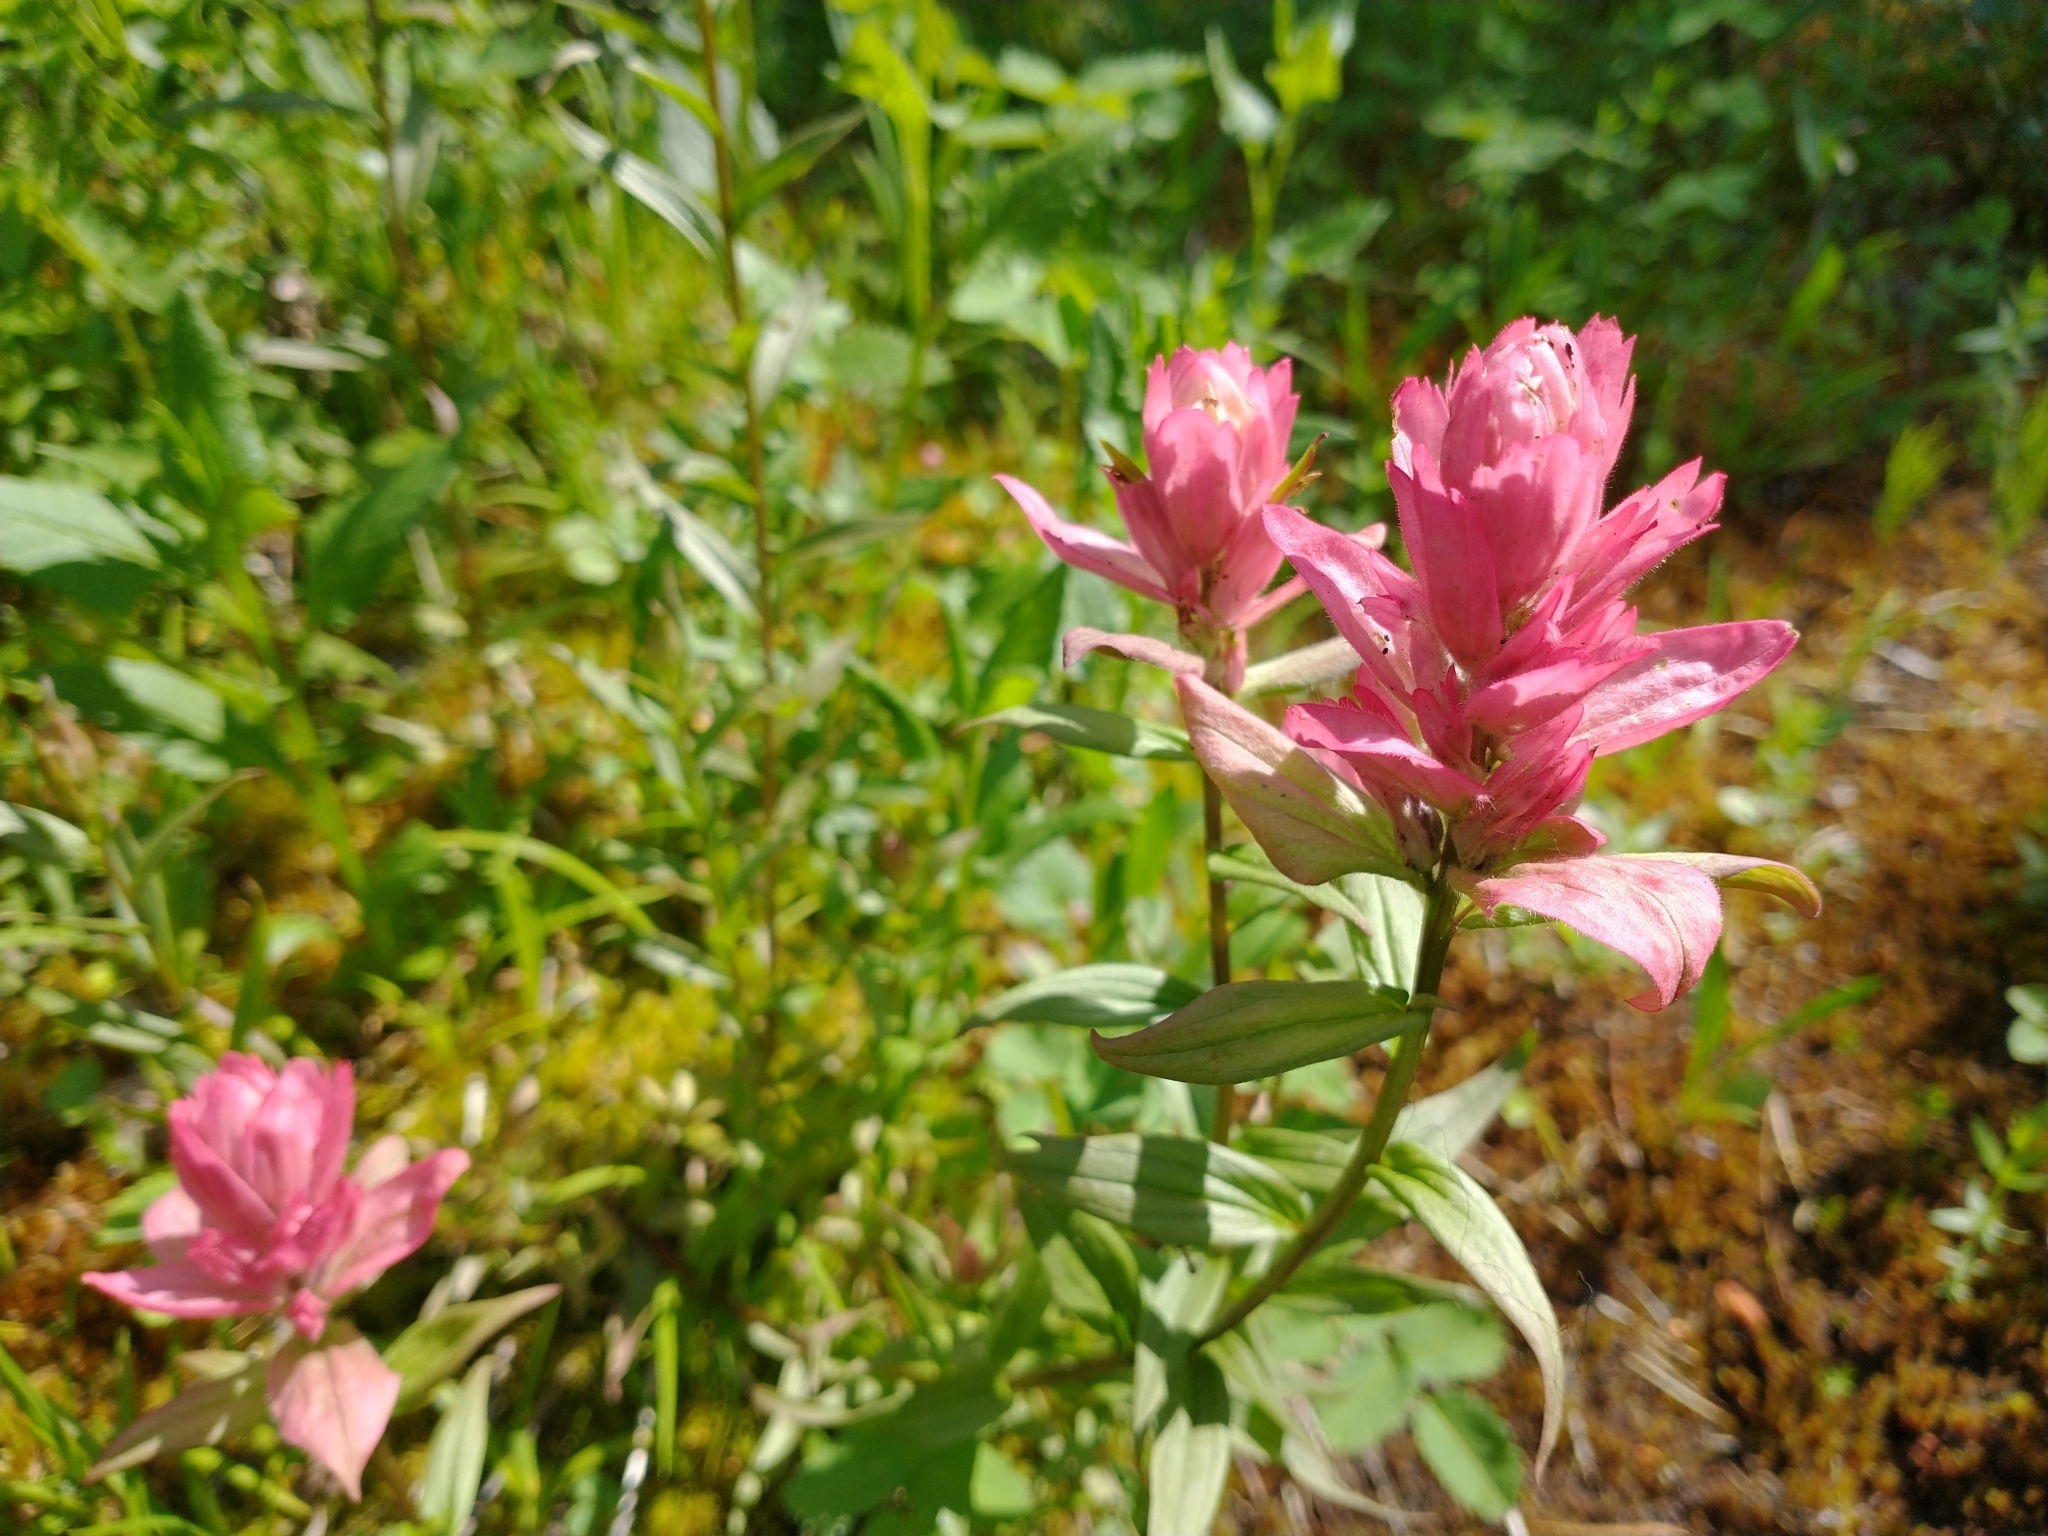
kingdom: Plantae
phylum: Tracheophyta
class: Magnoliopsida
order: Lamiales
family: Orobanchaceae
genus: Castilleja
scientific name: Castilleja miniata
